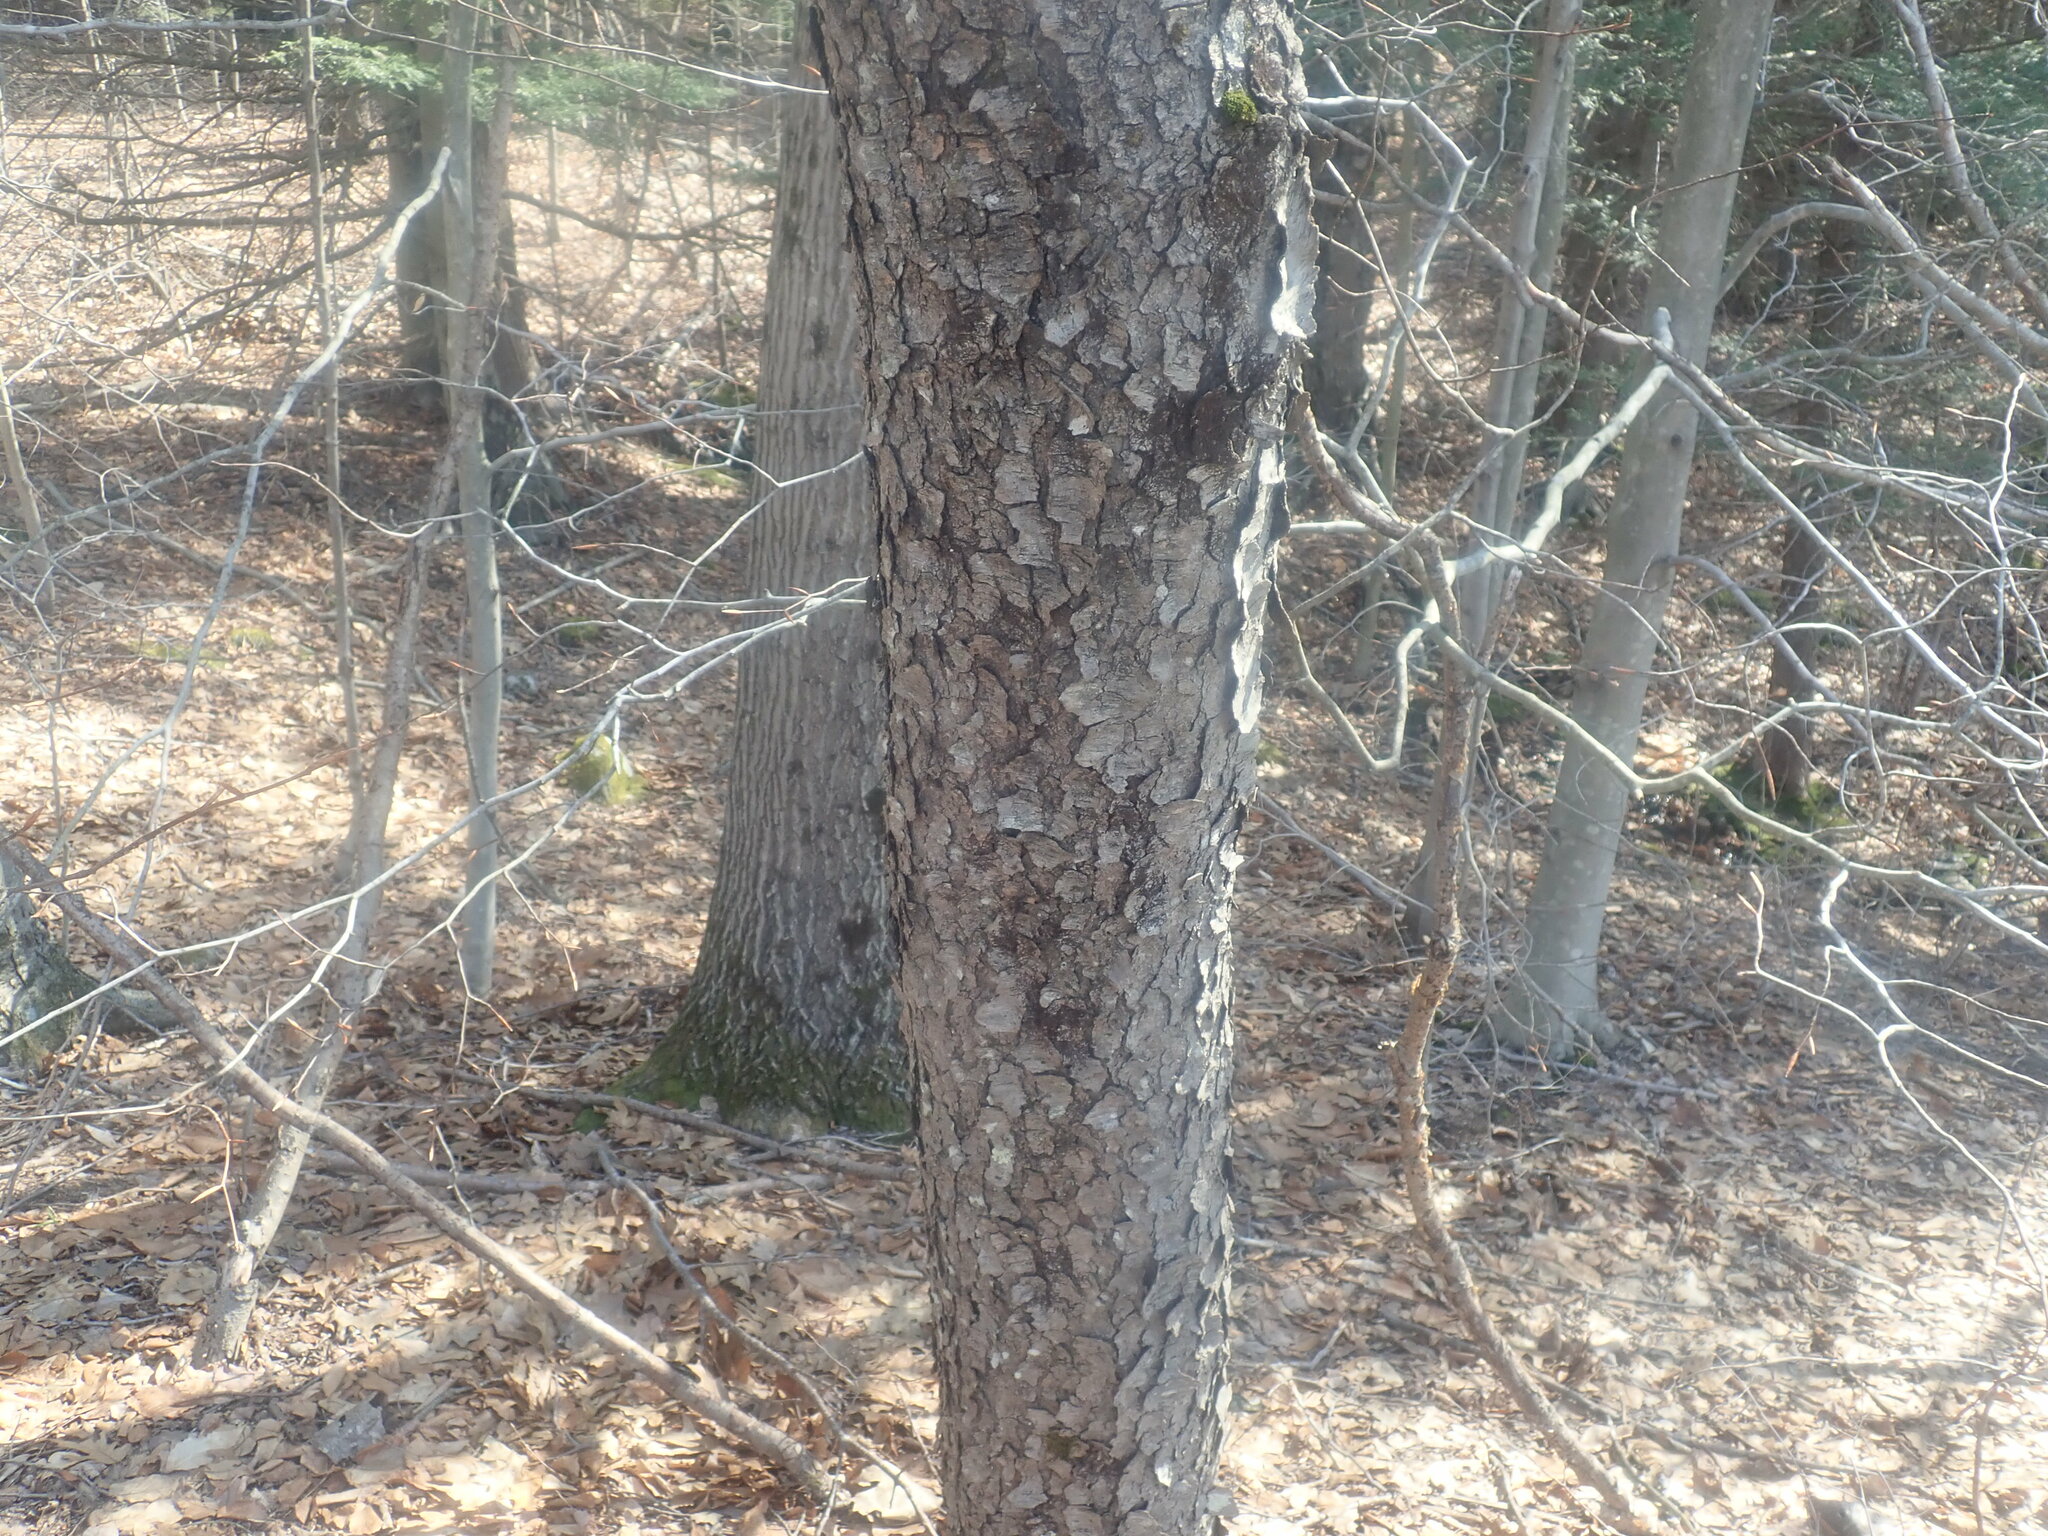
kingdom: Plantae
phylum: Tracheophyta
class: Magnoliopsida
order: Rosales
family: Rosaceae
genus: Prunus
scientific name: Prunus serotina
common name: Black cherry
